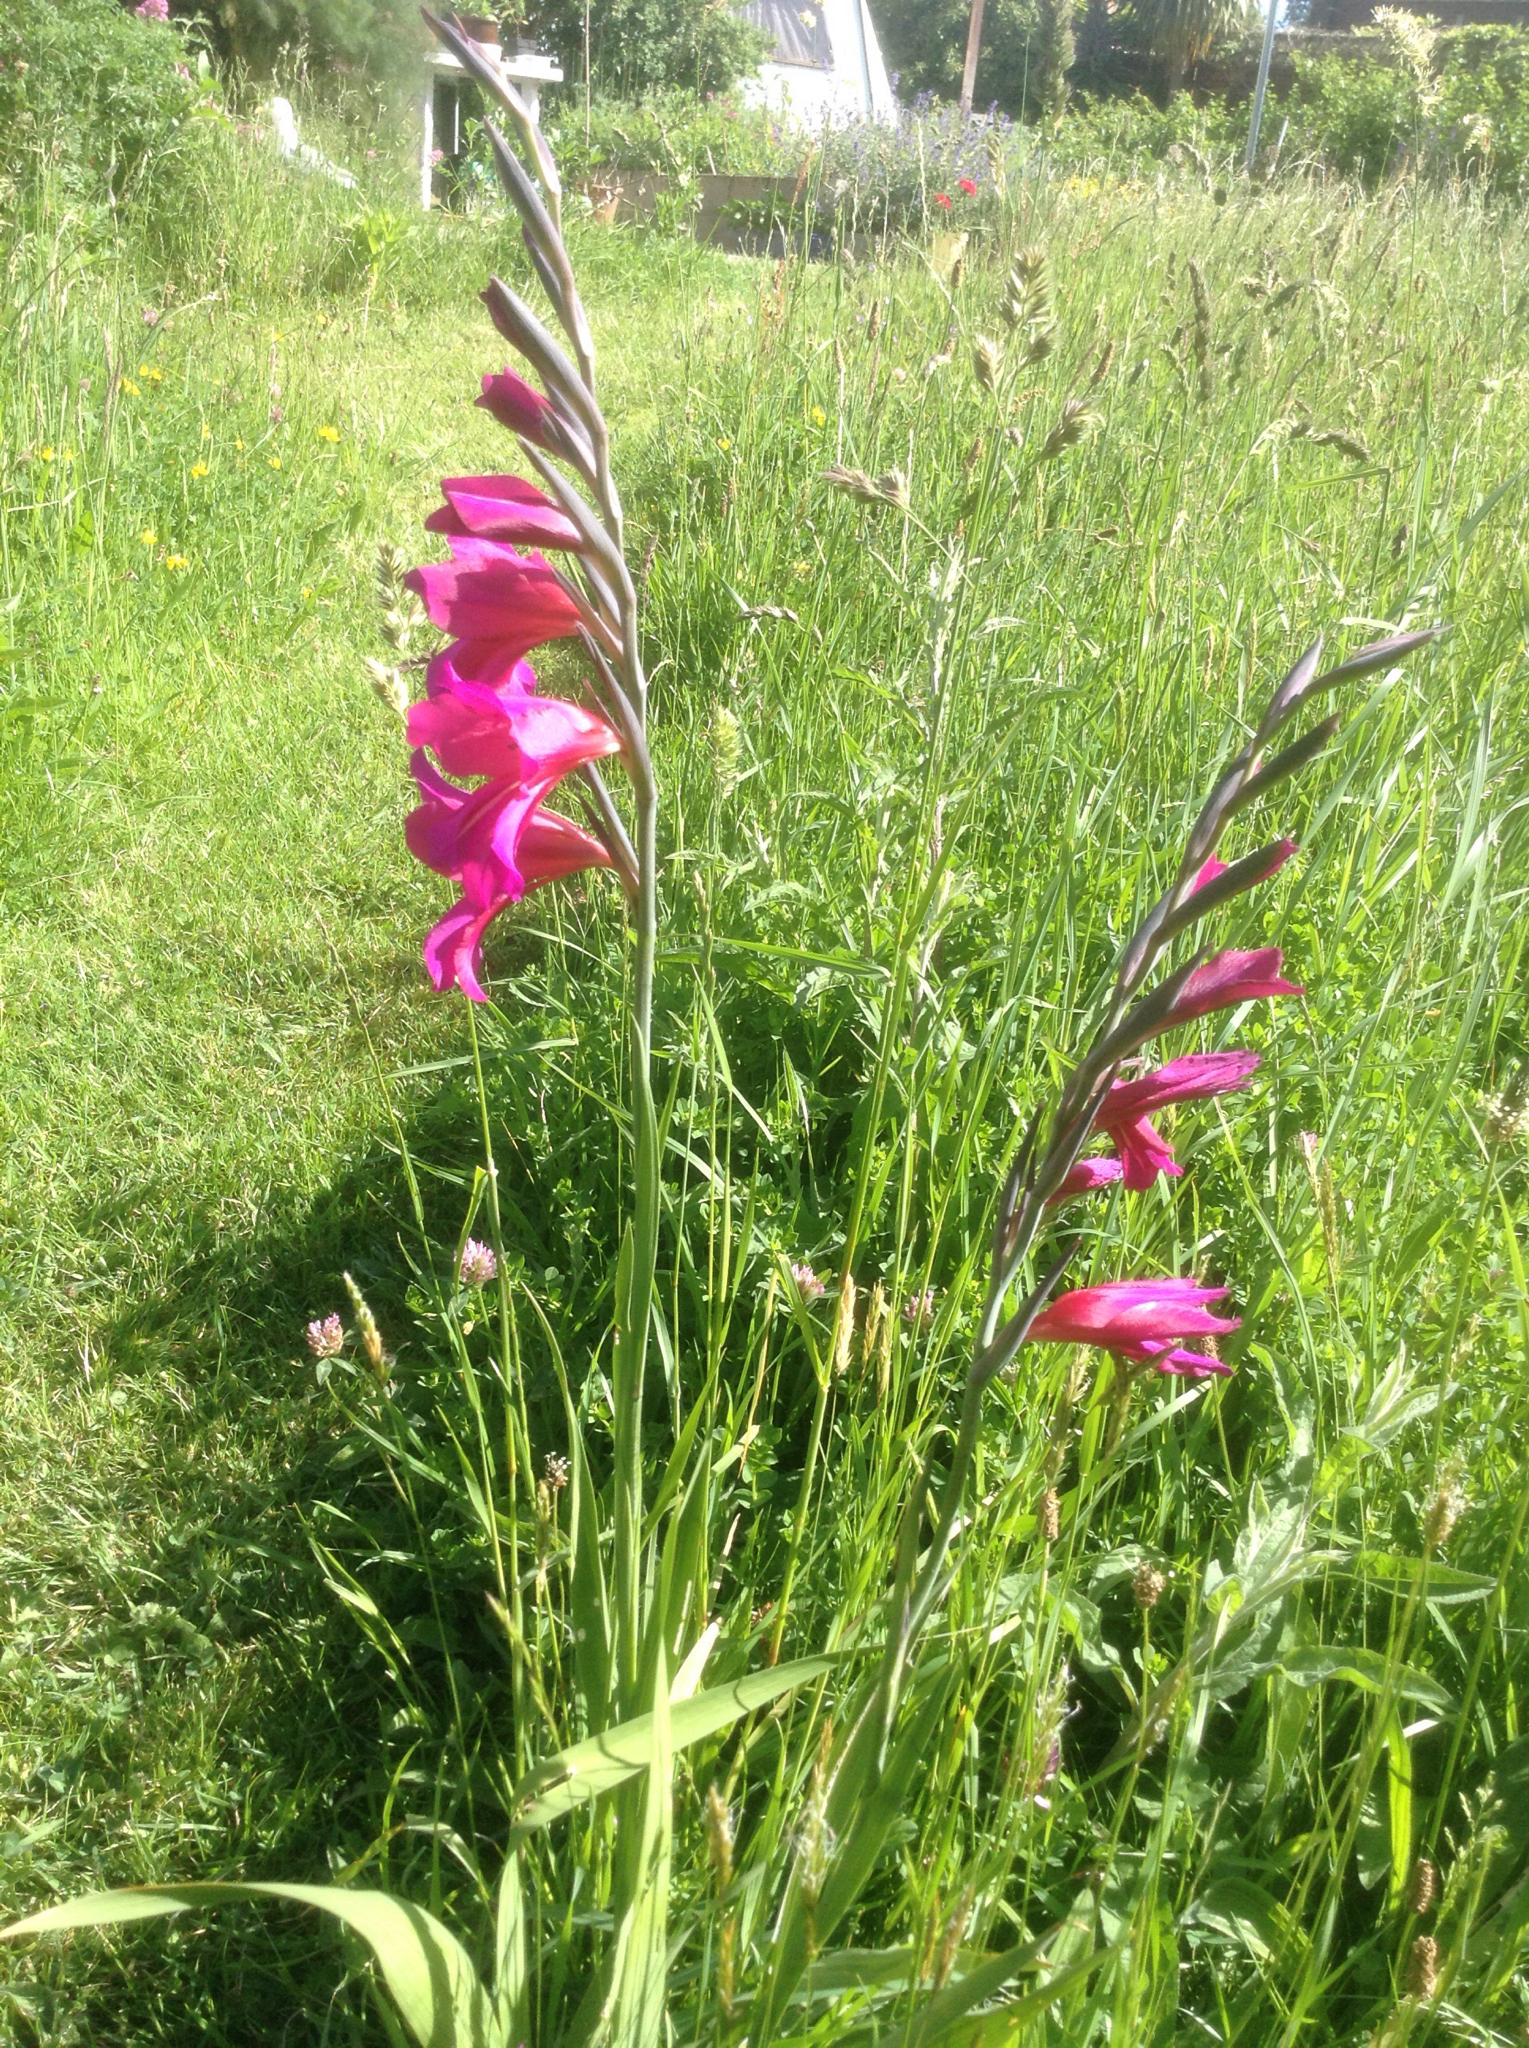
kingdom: Plantae
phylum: Tracheophyta
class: Liliopsida
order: Asparagales
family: Iridaceae
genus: Gladiolus
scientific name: Gladiolus communis
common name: Eastern gladiolus
